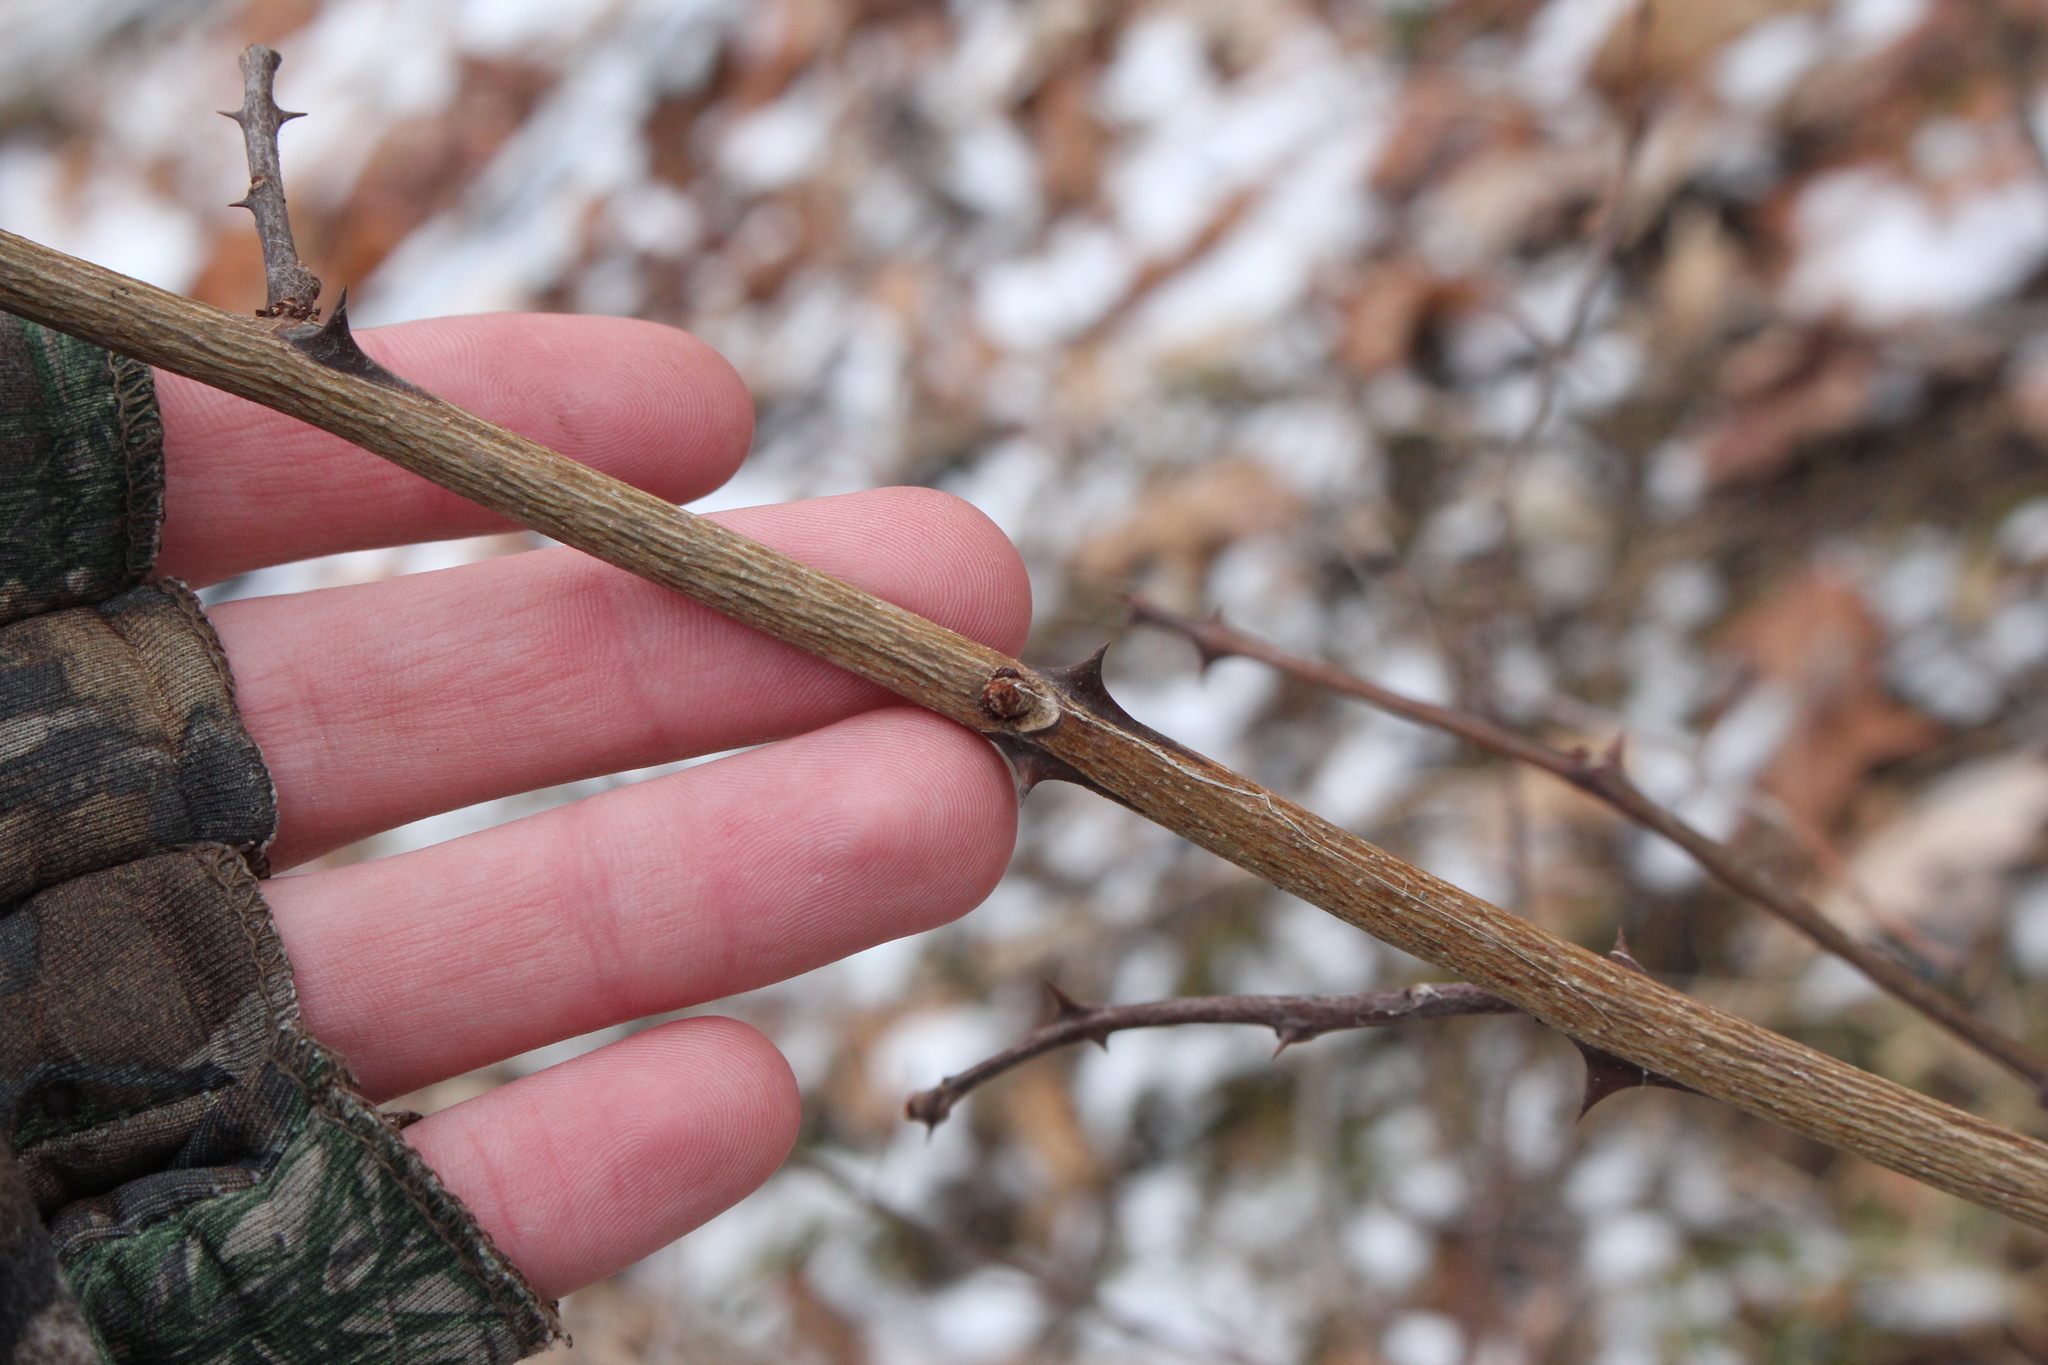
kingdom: Plantae
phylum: Tracheophyta
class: Magnoliopsida
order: Sapindales
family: Rutaceae
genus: Zanthoxylum
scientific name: Zanthoxylum americanum
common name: Northern prickly-ash
